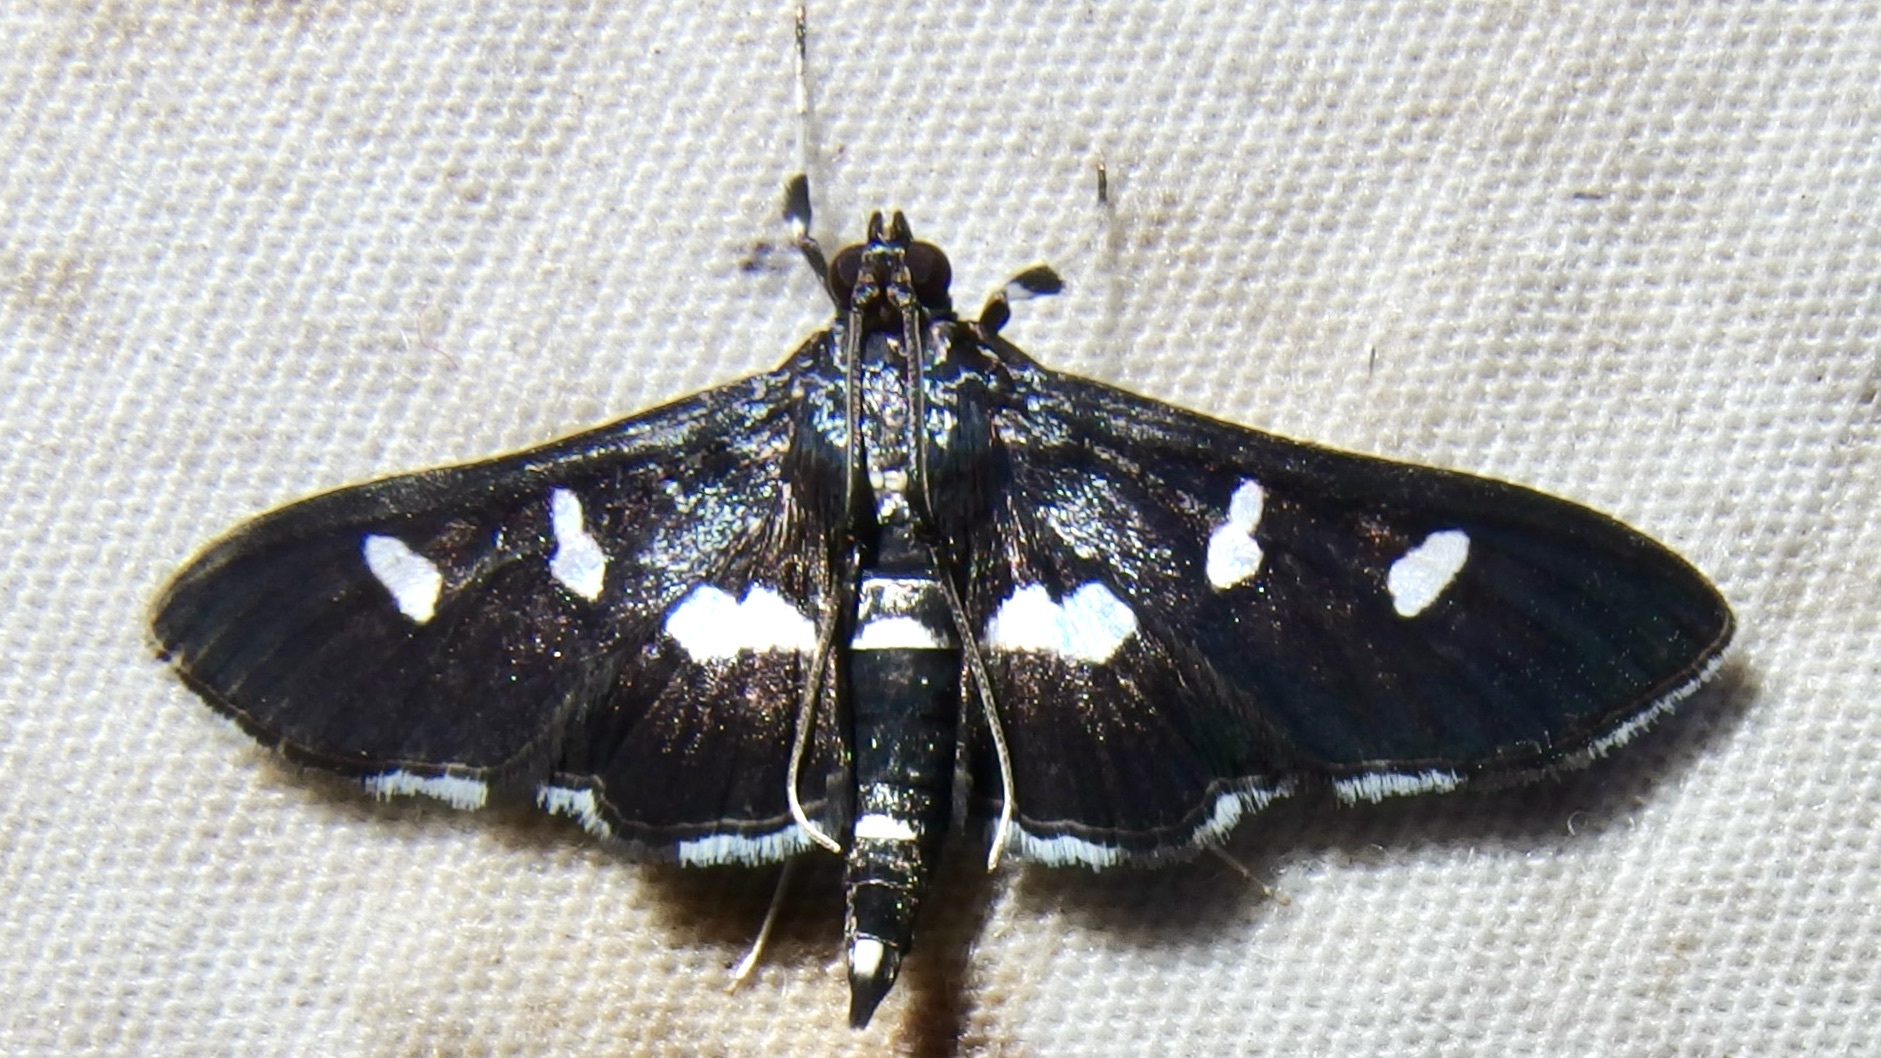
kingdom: Animalia
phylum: Arthropoda
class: Insecta
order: Lepidoptera
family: Crambidae
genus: Desmia
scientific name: Desmia
